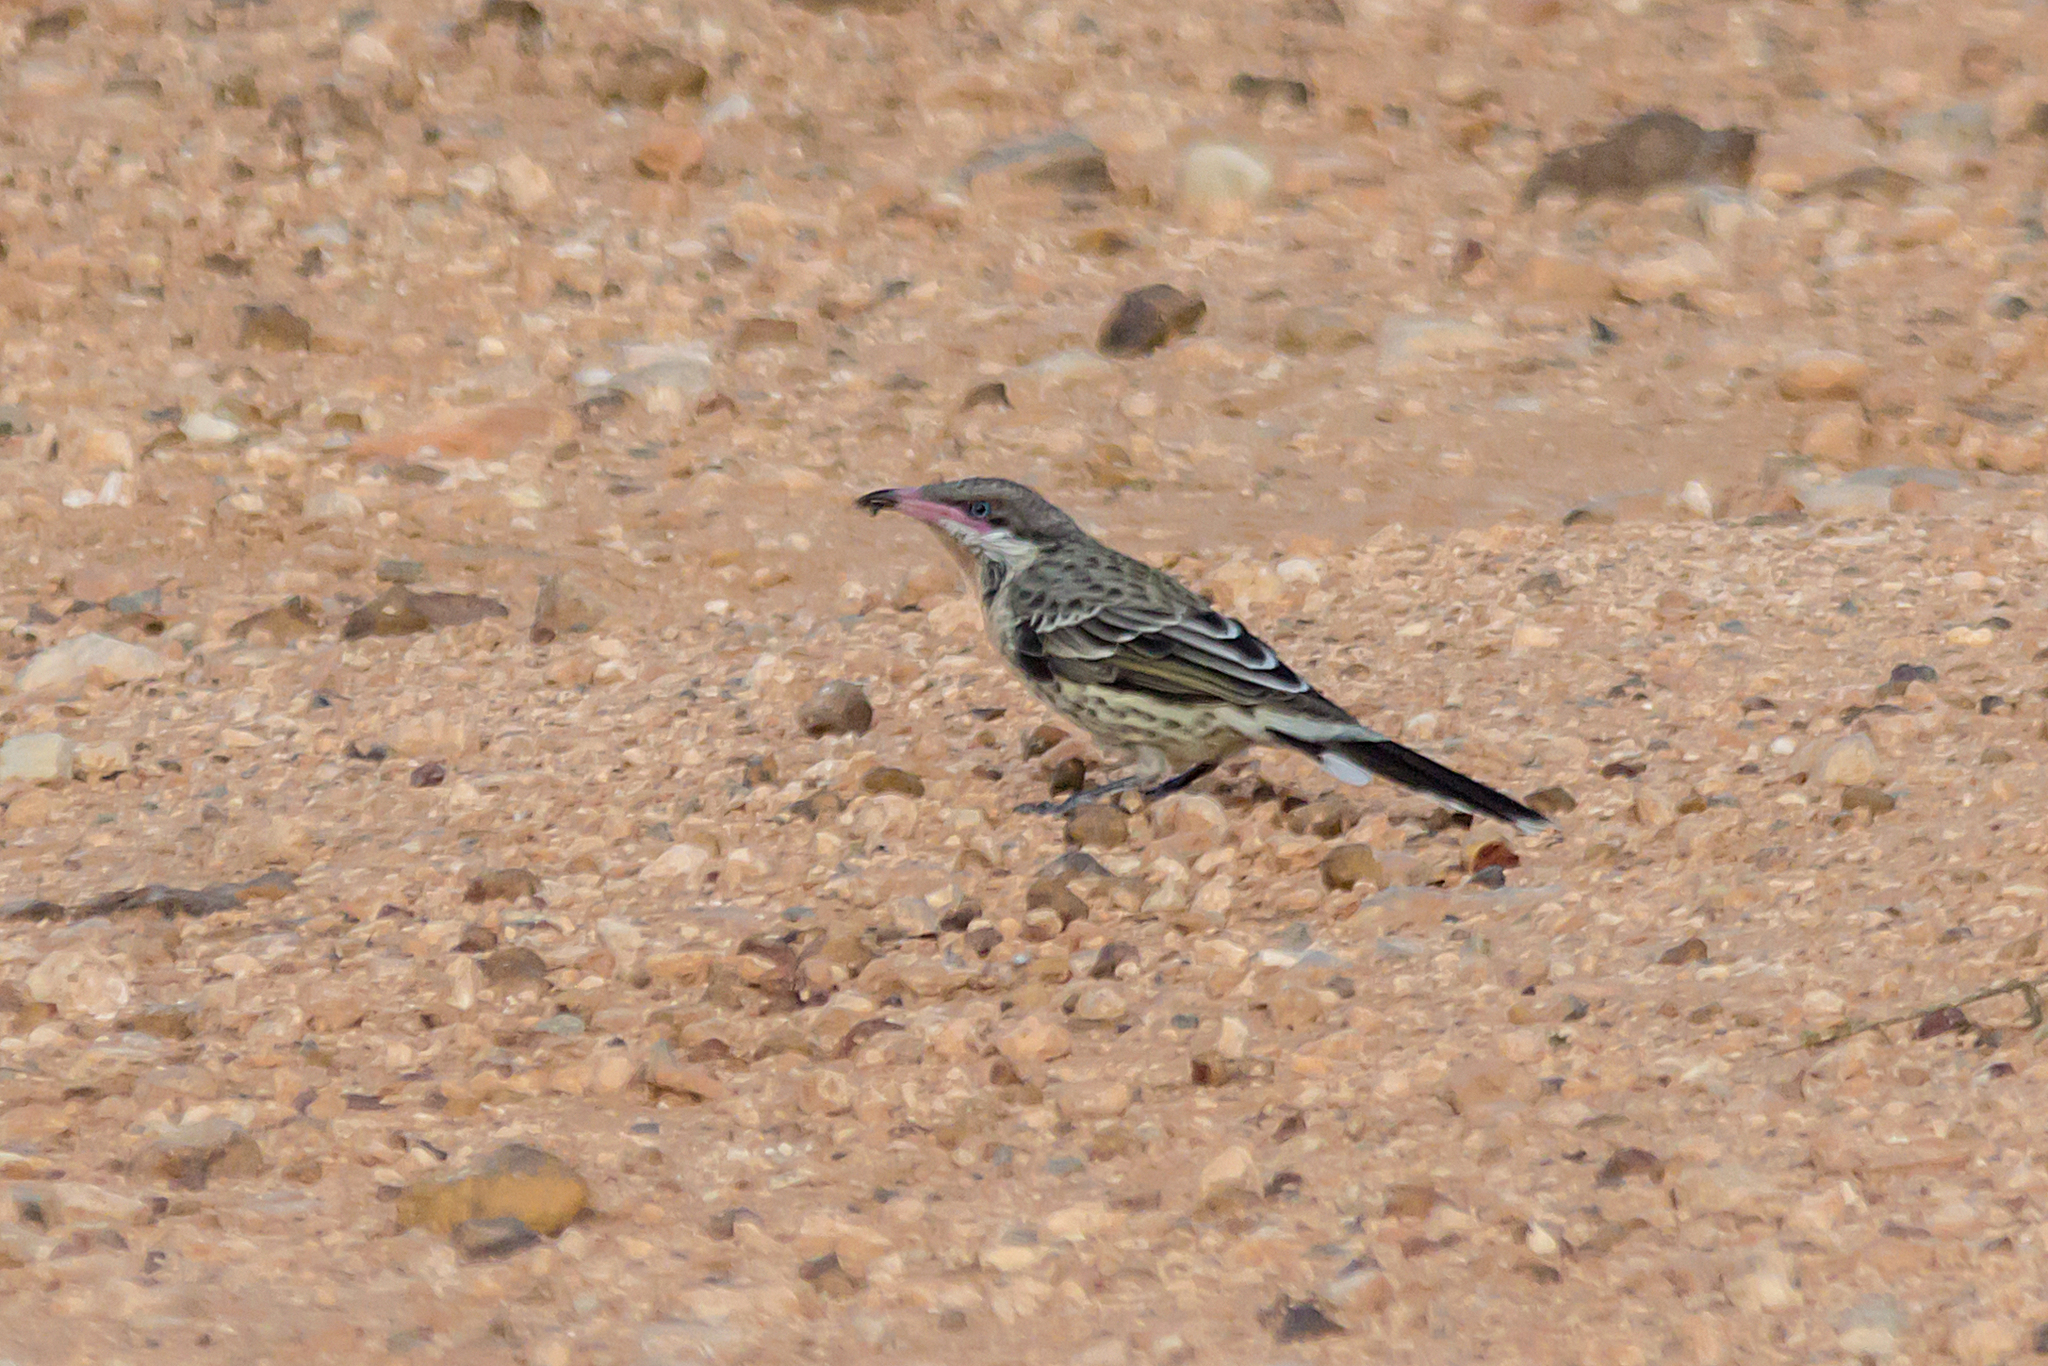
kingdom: Animalia
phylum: Chordata
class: Aves
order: Passeriformes
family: Meliphagidae
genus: Acanthagenys
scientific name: Acanthagenys rufogularis
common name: Spiny-cheeked honeyeater
